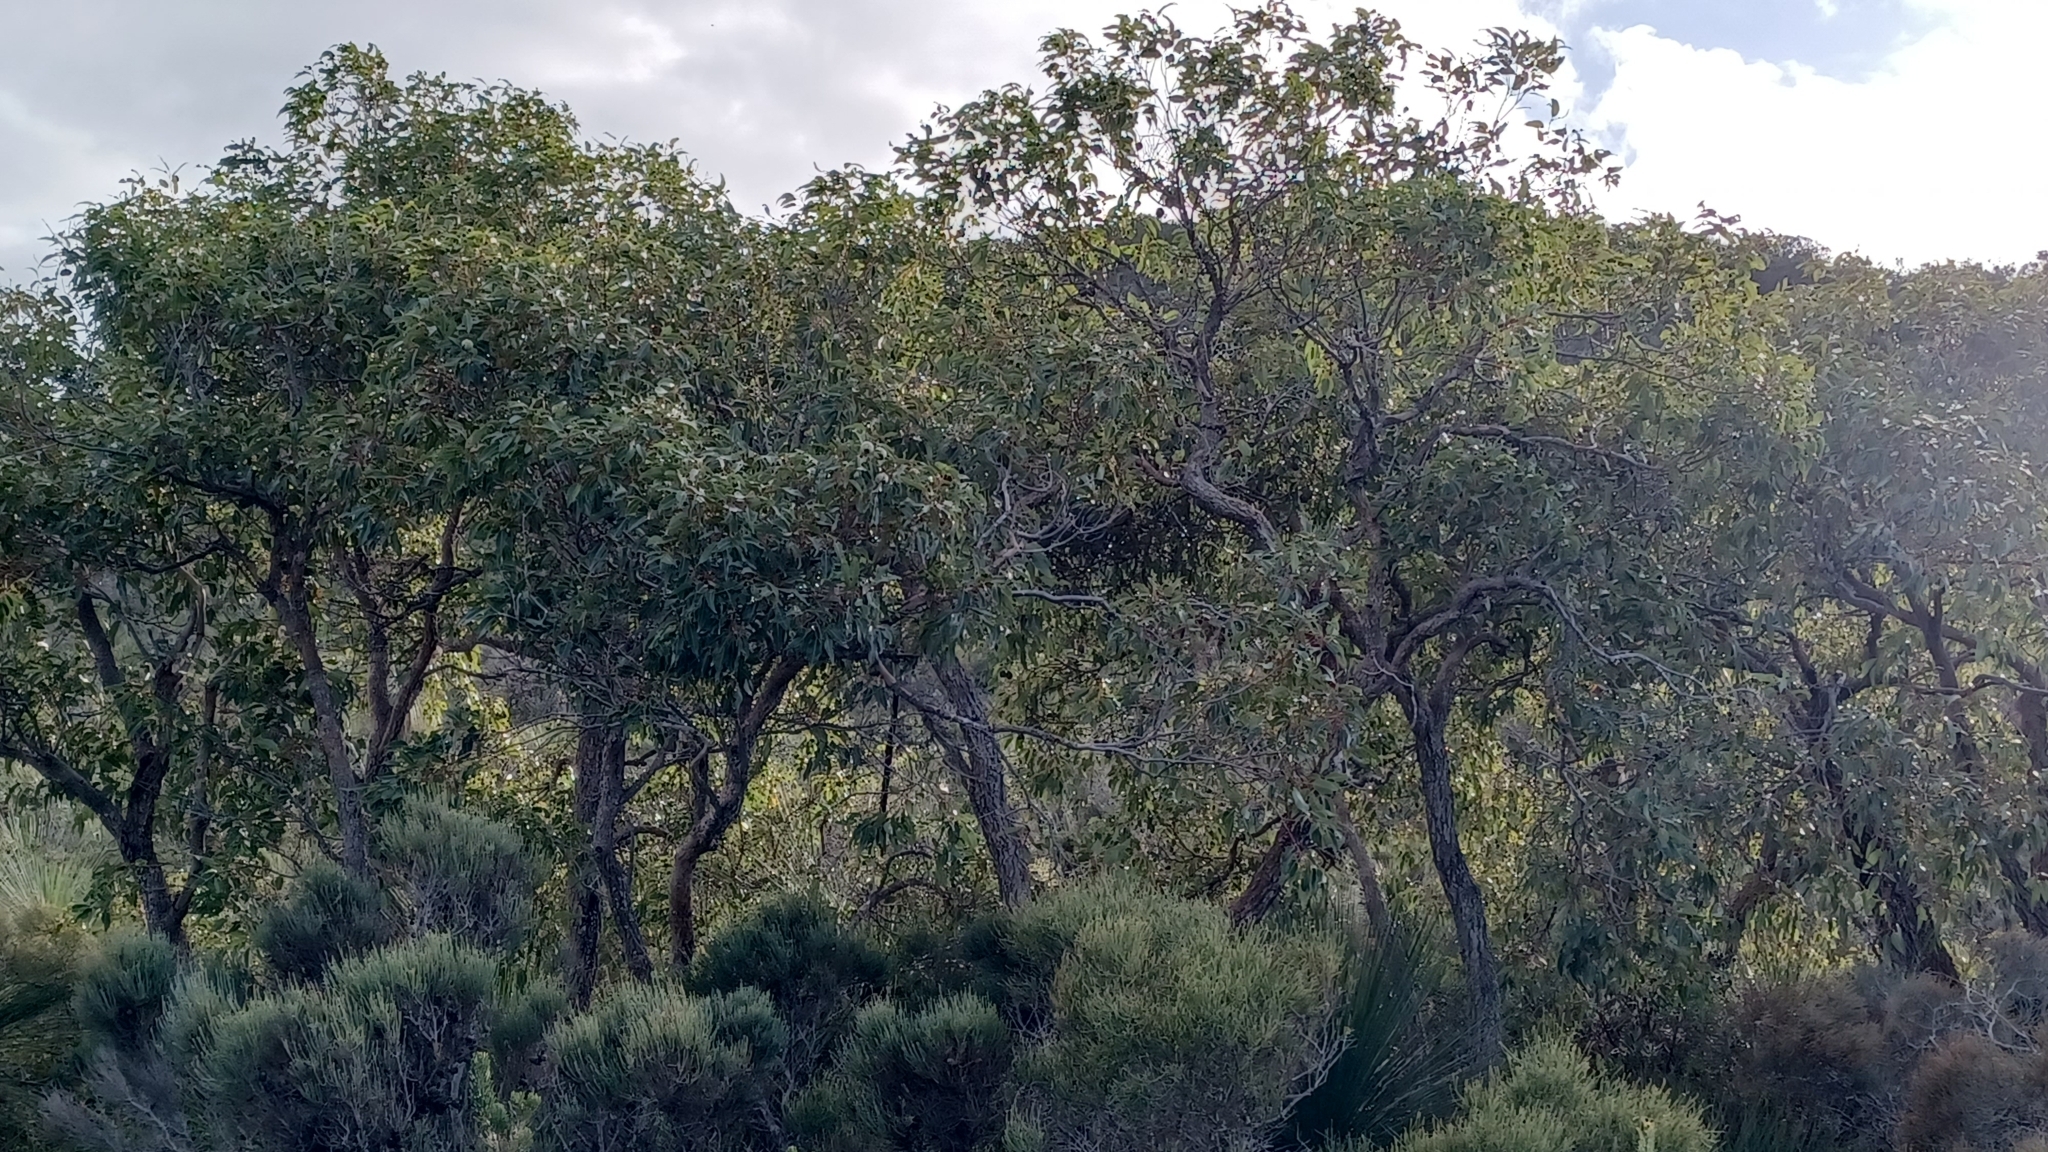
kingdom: Plantae
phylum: Tracheophyta
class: Magnoliopsida
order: Myrtales
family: Myrtaceae
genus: Corymbia
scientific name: Corymbia haematoxylon
